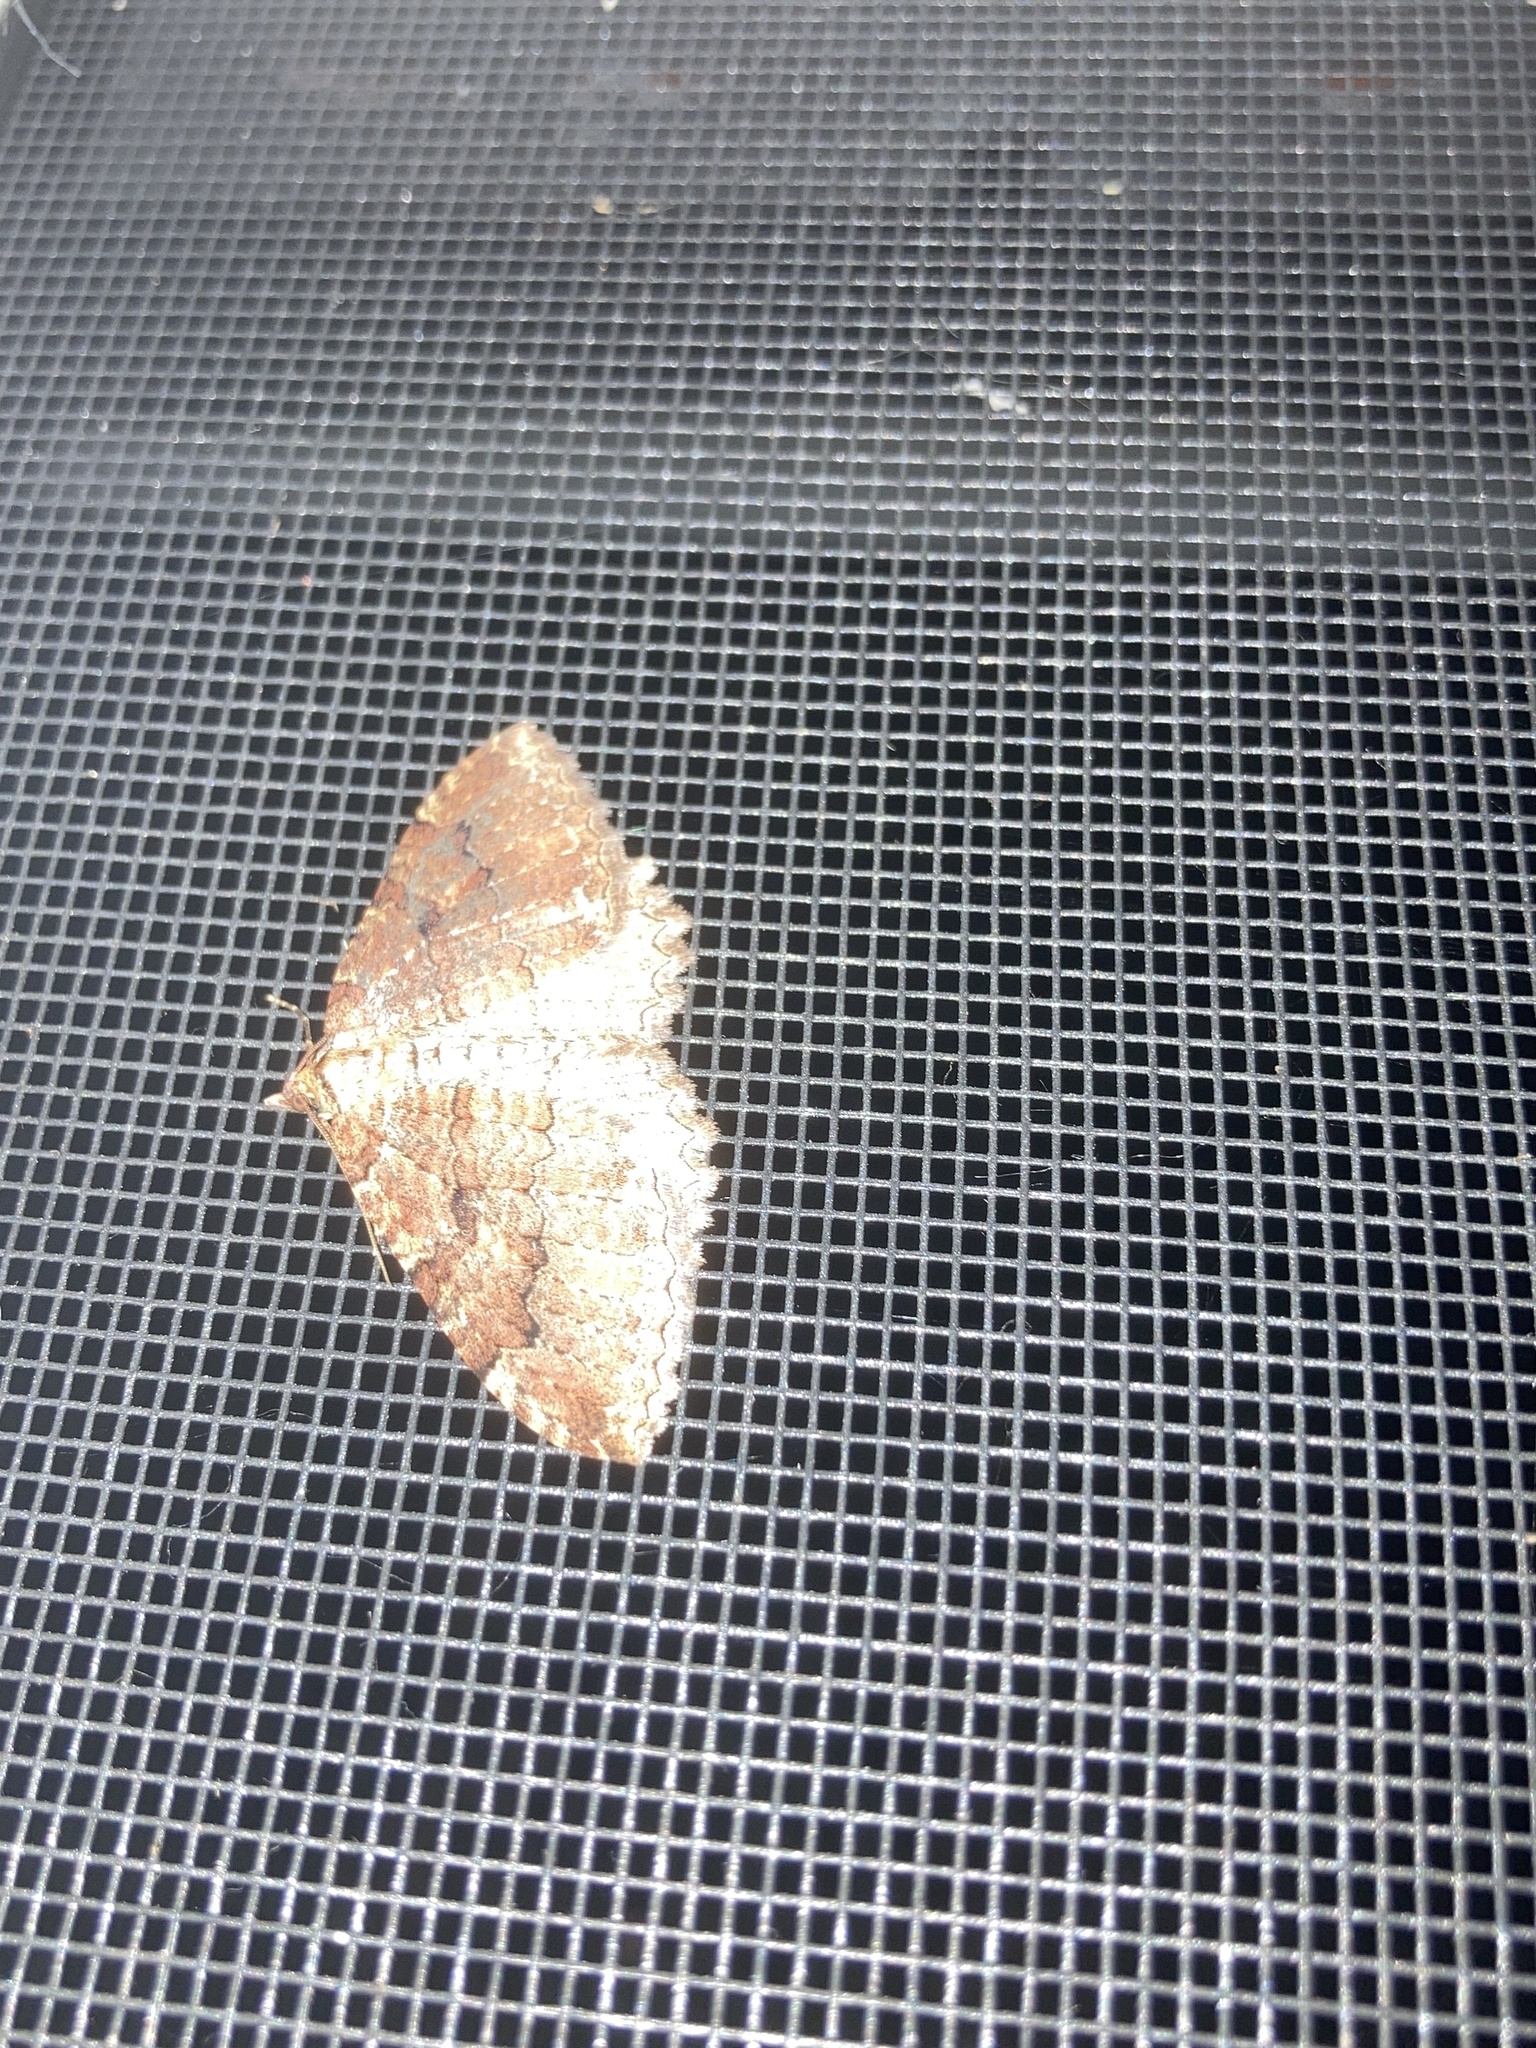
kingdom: Animalia
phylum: Arthropoda
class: Insecta
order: Lepidoptera
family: Geometridae
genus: Triphosa
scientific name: Triphosa haesitata
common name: Tissue moth
